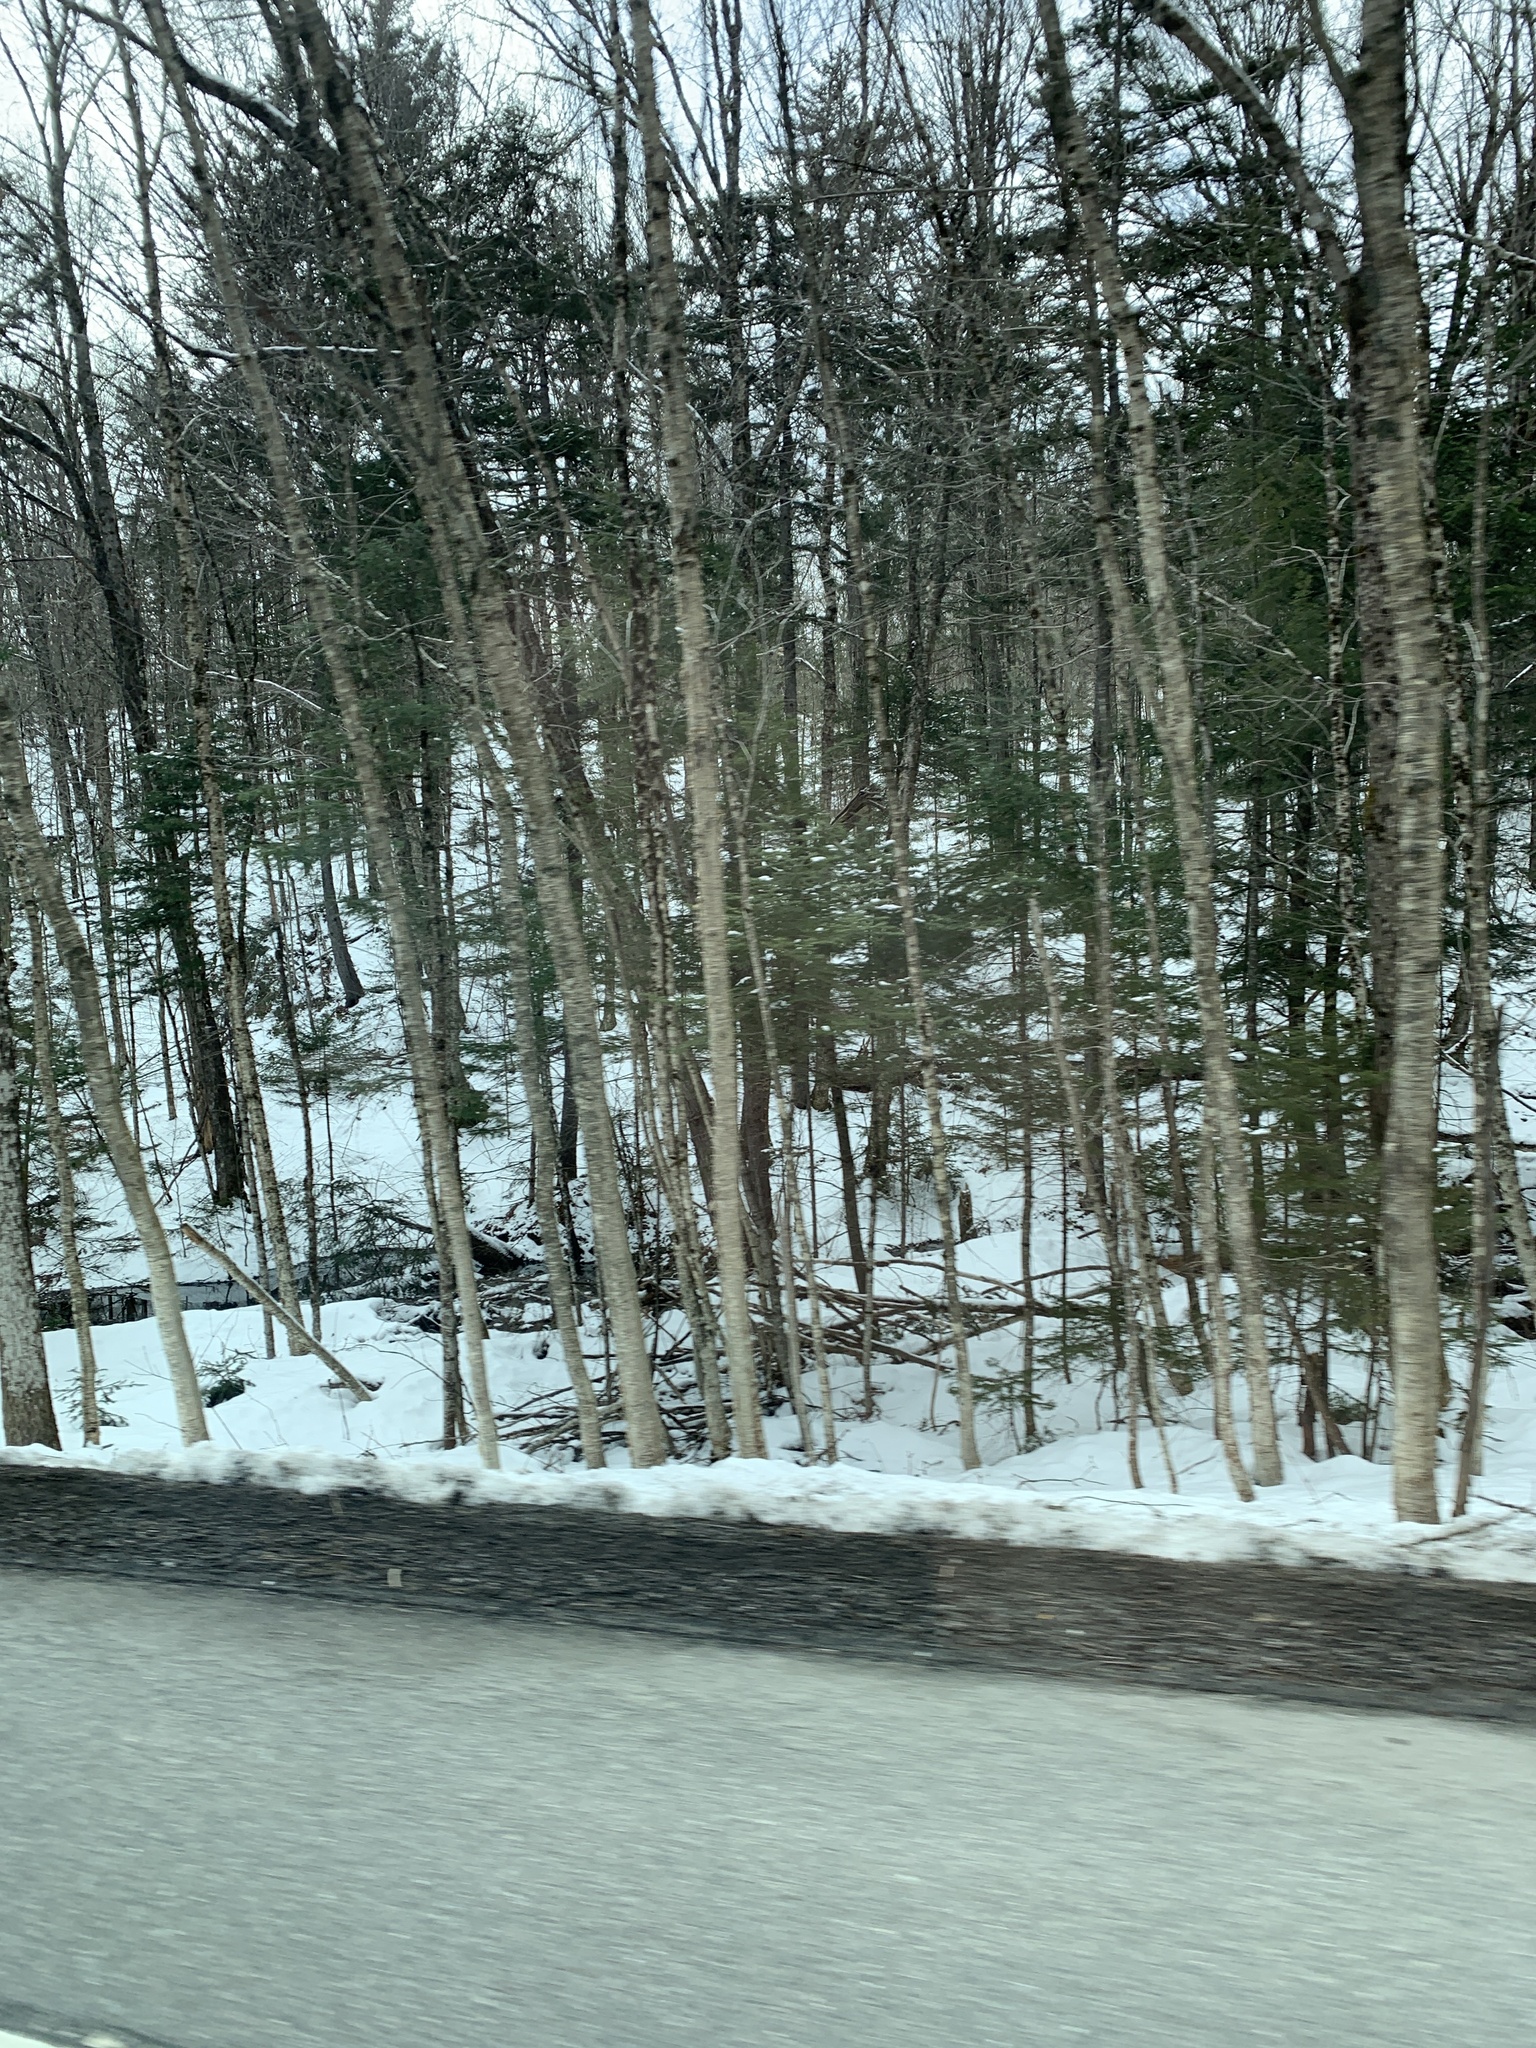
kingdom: Plantae
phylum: Tracheophyta
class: Magnoliopsida
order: Fagales
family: Betulaceae
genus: Betula
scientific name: Betula alleghaniensis
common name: Yellow birch
